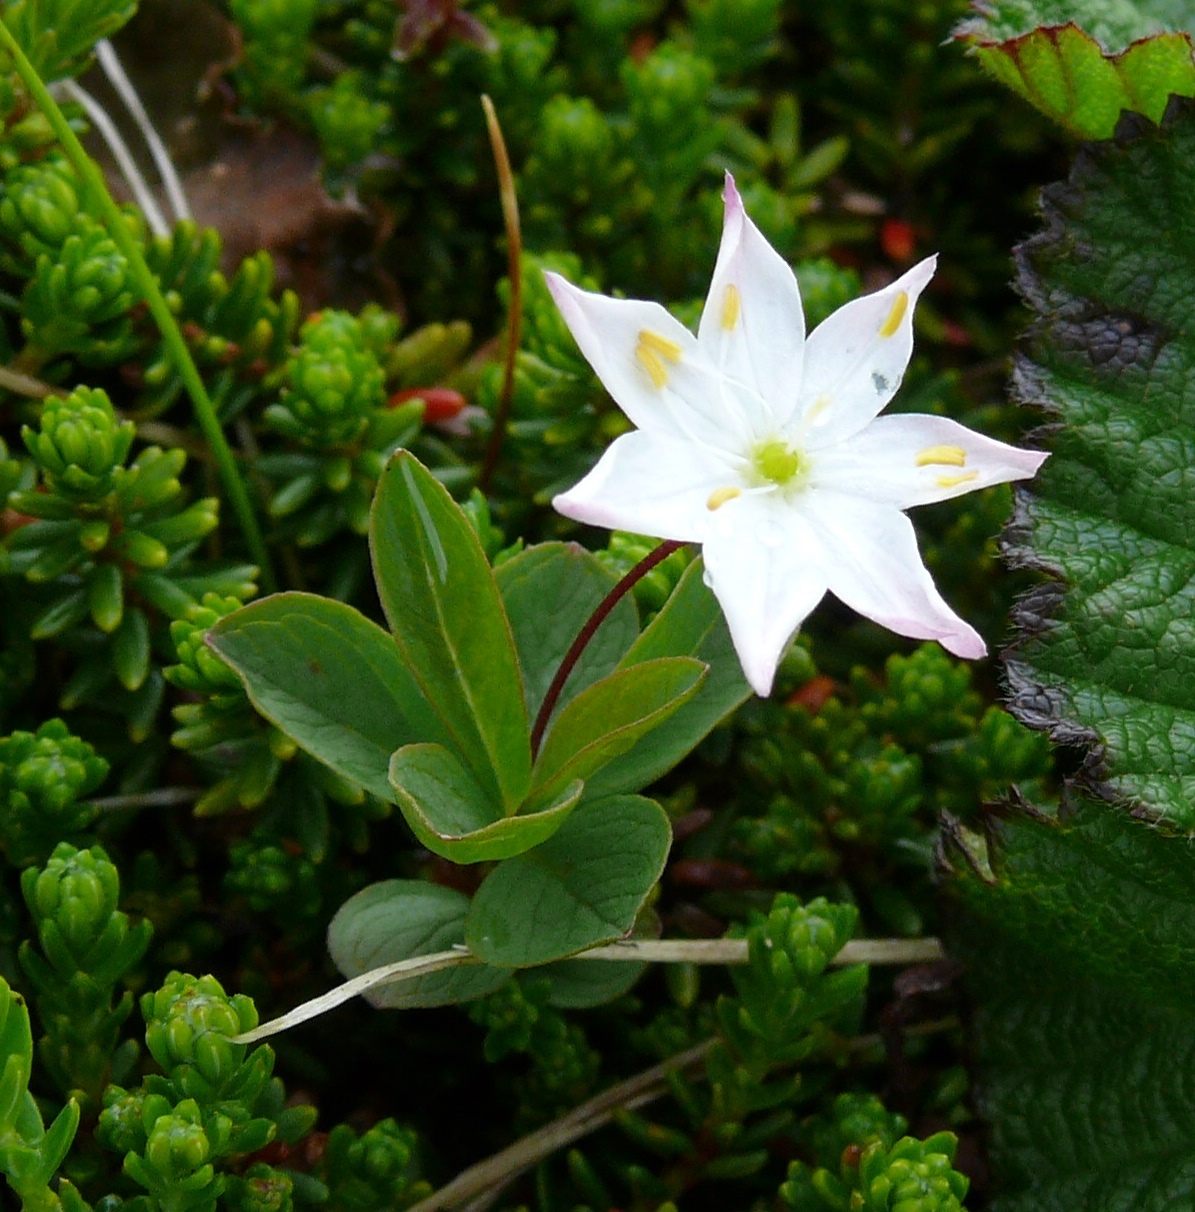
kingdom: Plantae
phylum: Tracheophyta
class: Magnoliopsida
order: Ericales
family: Primulaceae
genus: Lysimachia
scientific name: Lysimachia europaea
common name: Arctic starflower
